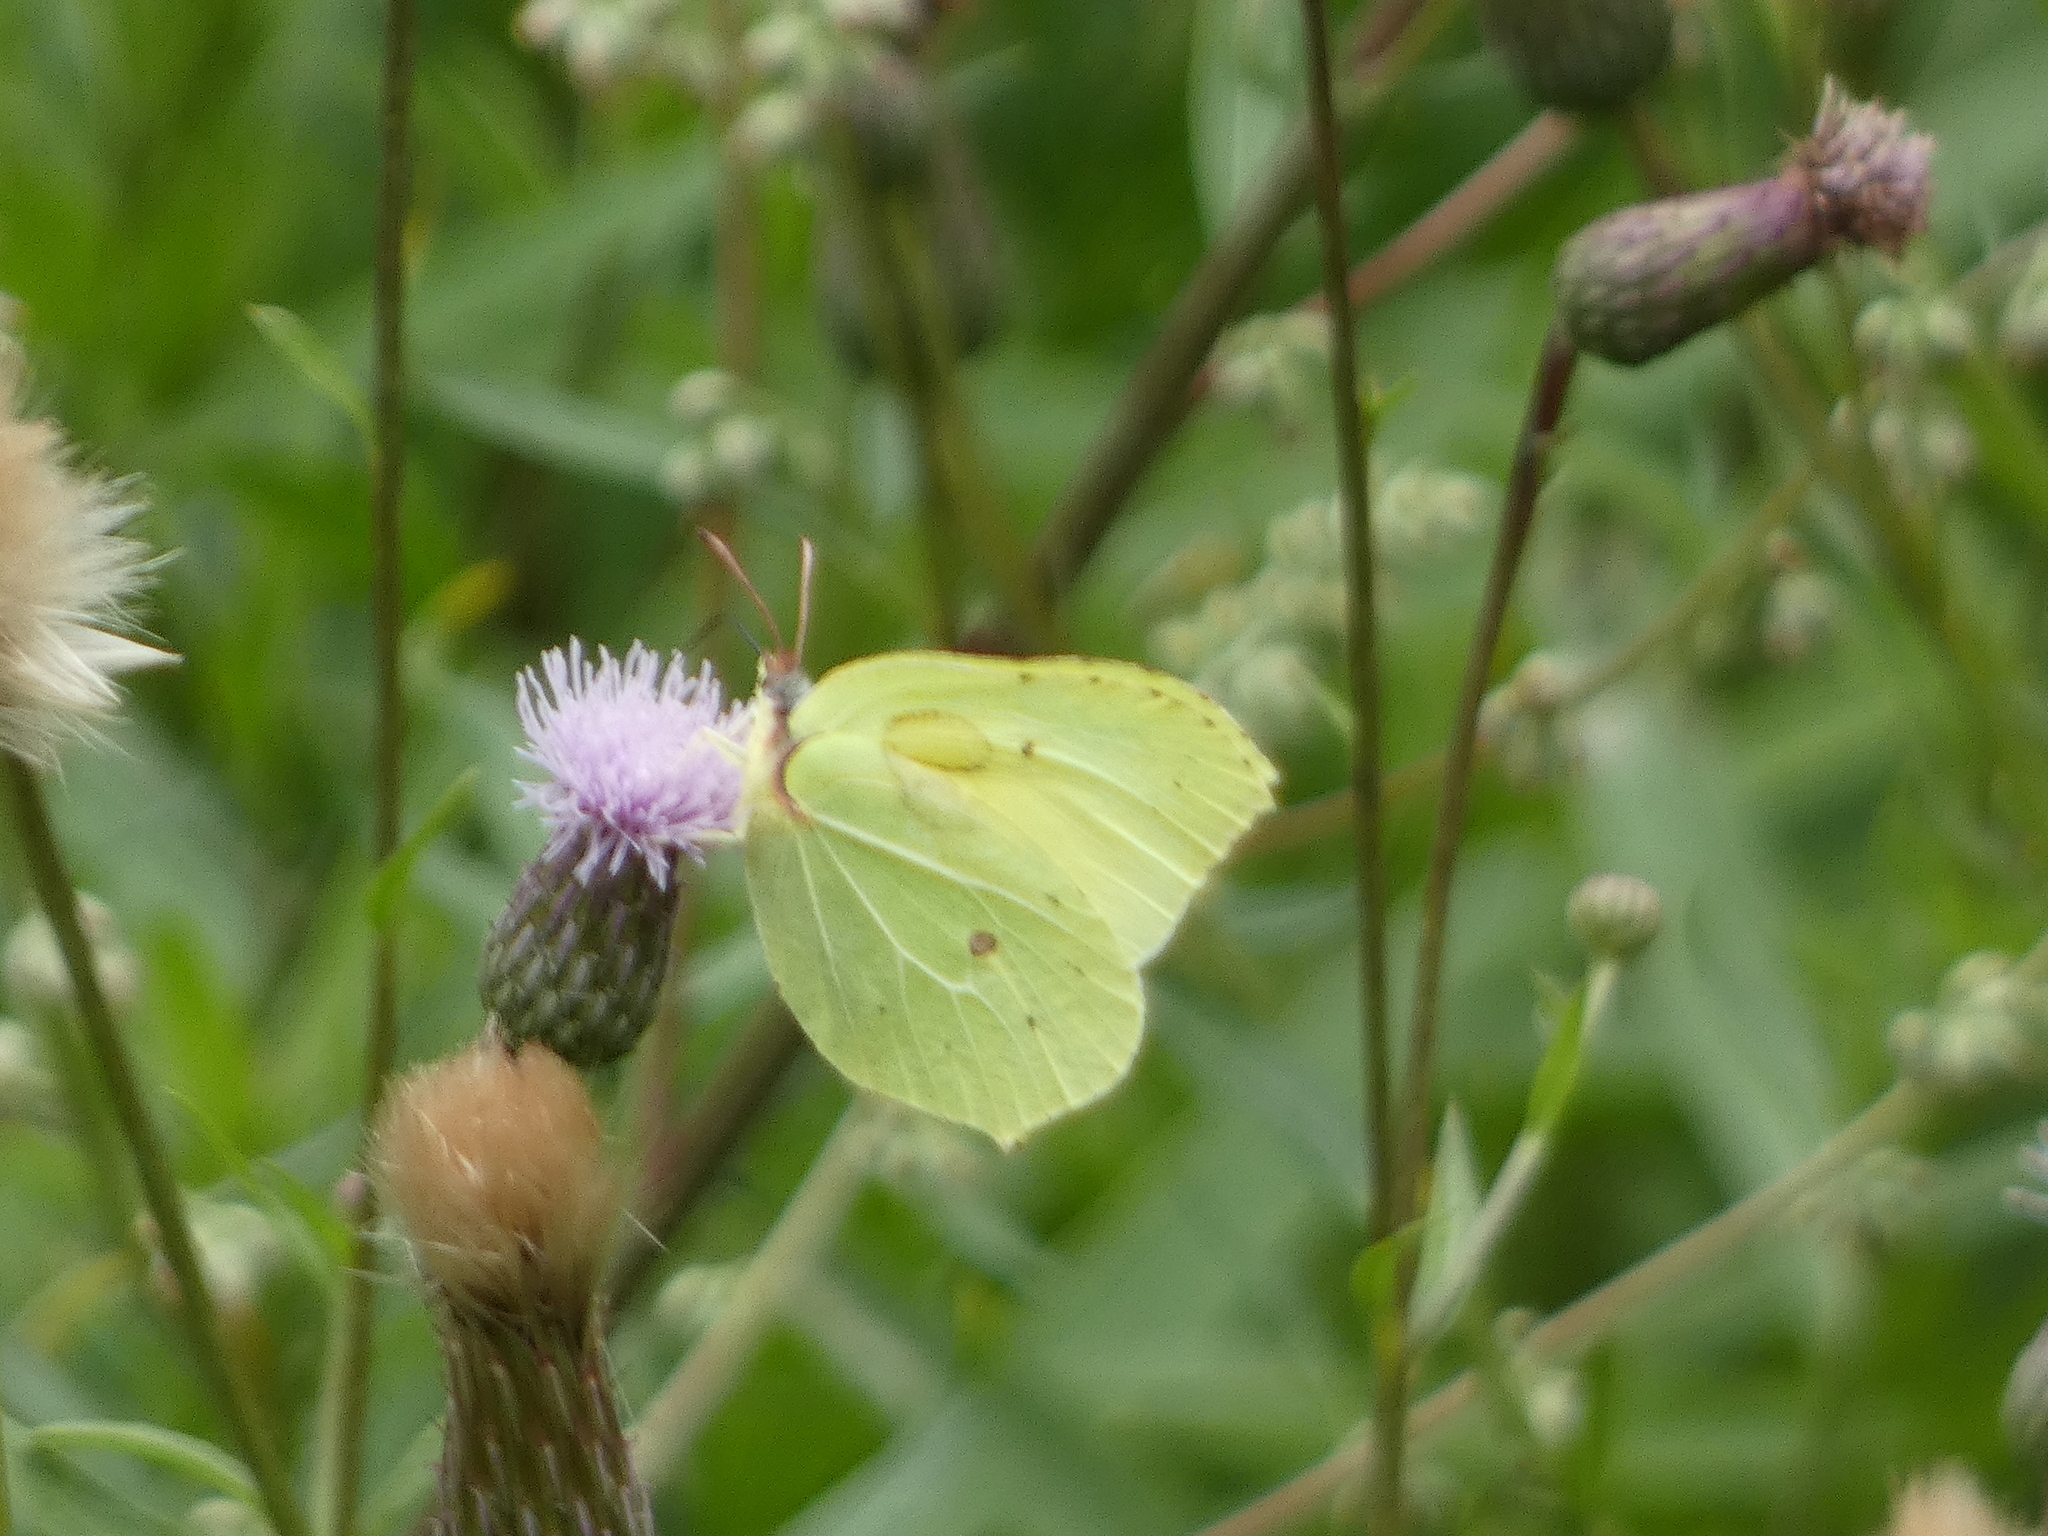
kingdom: Animalia
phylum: Arthropoda
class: Insecta
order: Lepidoptera
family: Pieridae
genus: Gonepteryx
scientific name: Gonepteryx rhamni
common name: Brimstone
